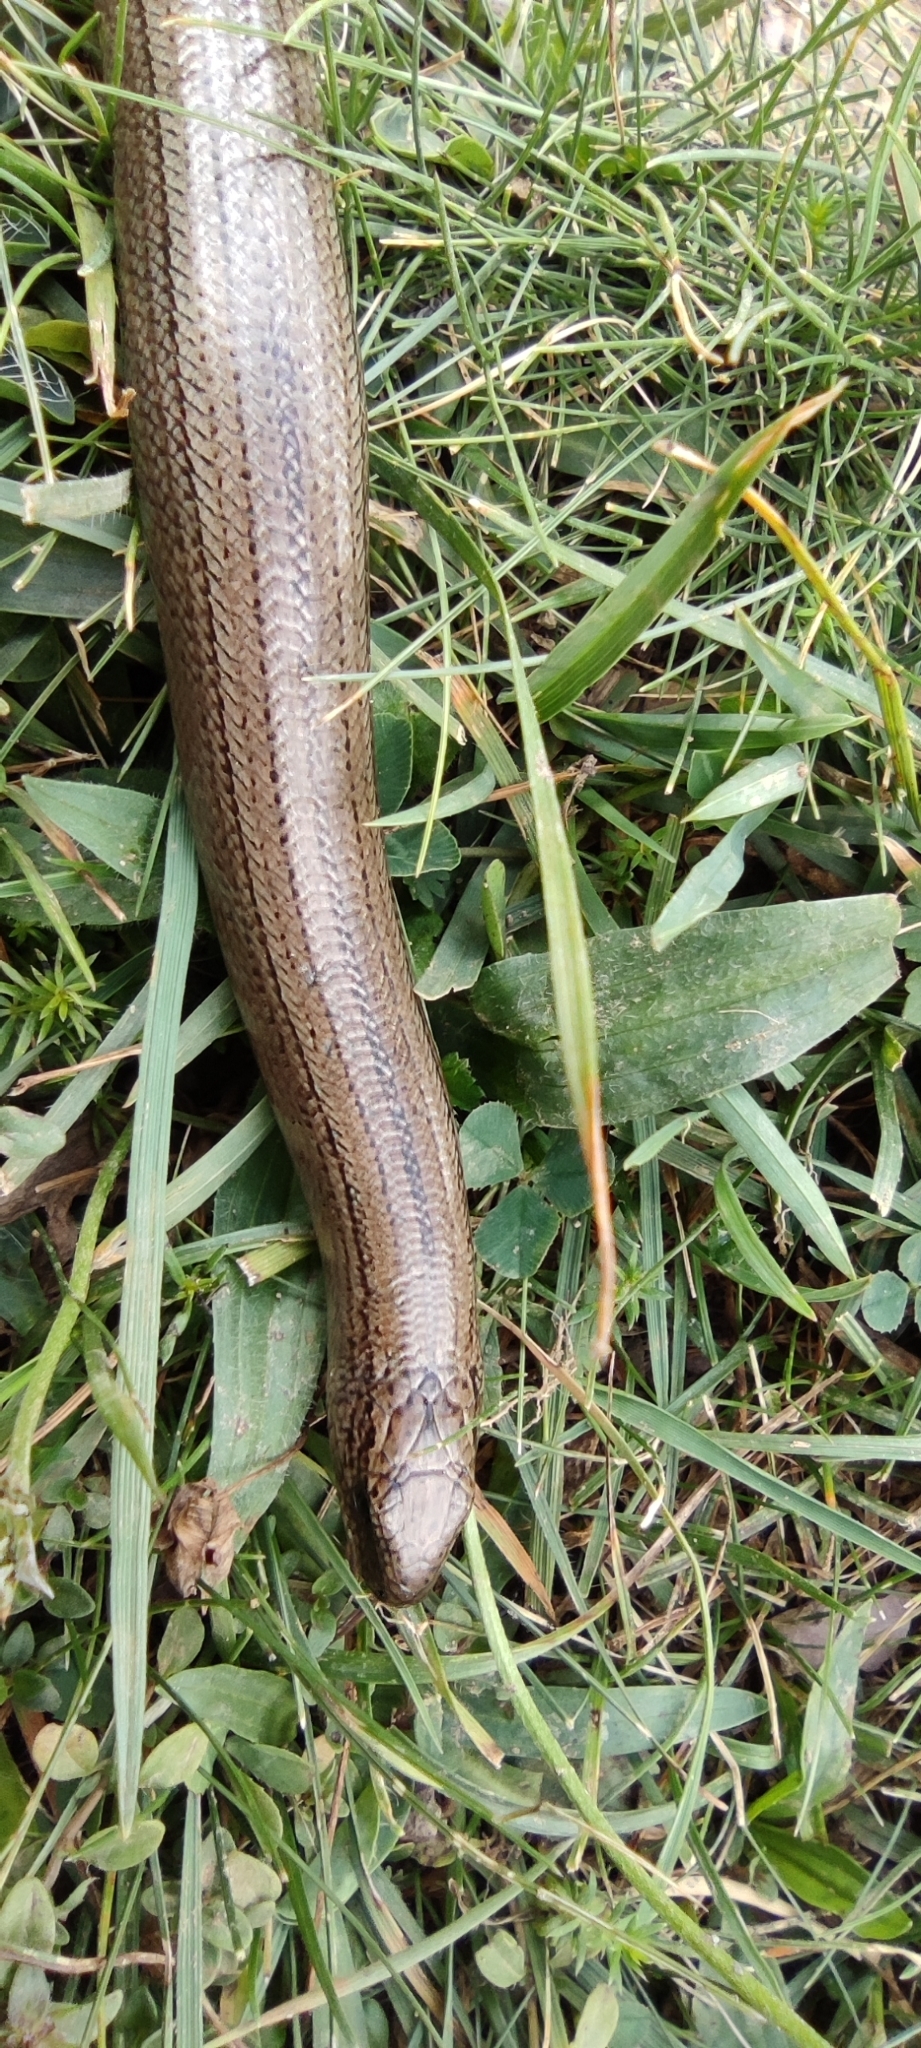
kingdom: Animalia
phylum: Chordata
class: Squamata
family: Anguidae
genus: Anguis
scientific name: Anguis fragilis
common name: Slow worm
